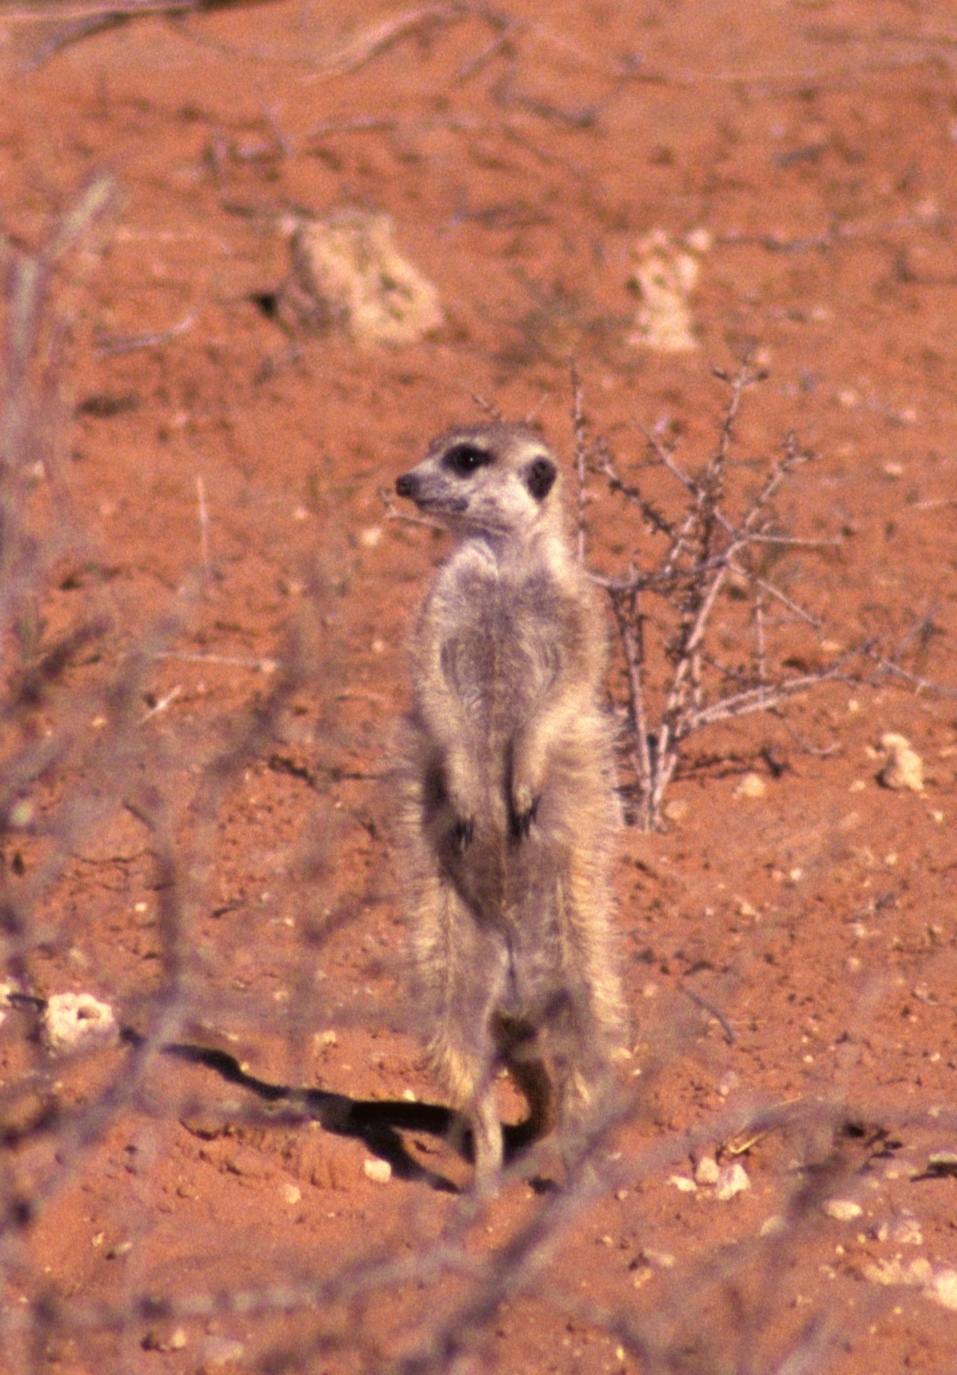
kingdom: Animalia
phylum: Chordata
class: Mammalia
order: Carnivora
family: Herpestidae
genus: Suricata
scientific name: Suricata suricatta
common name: Meerkat
